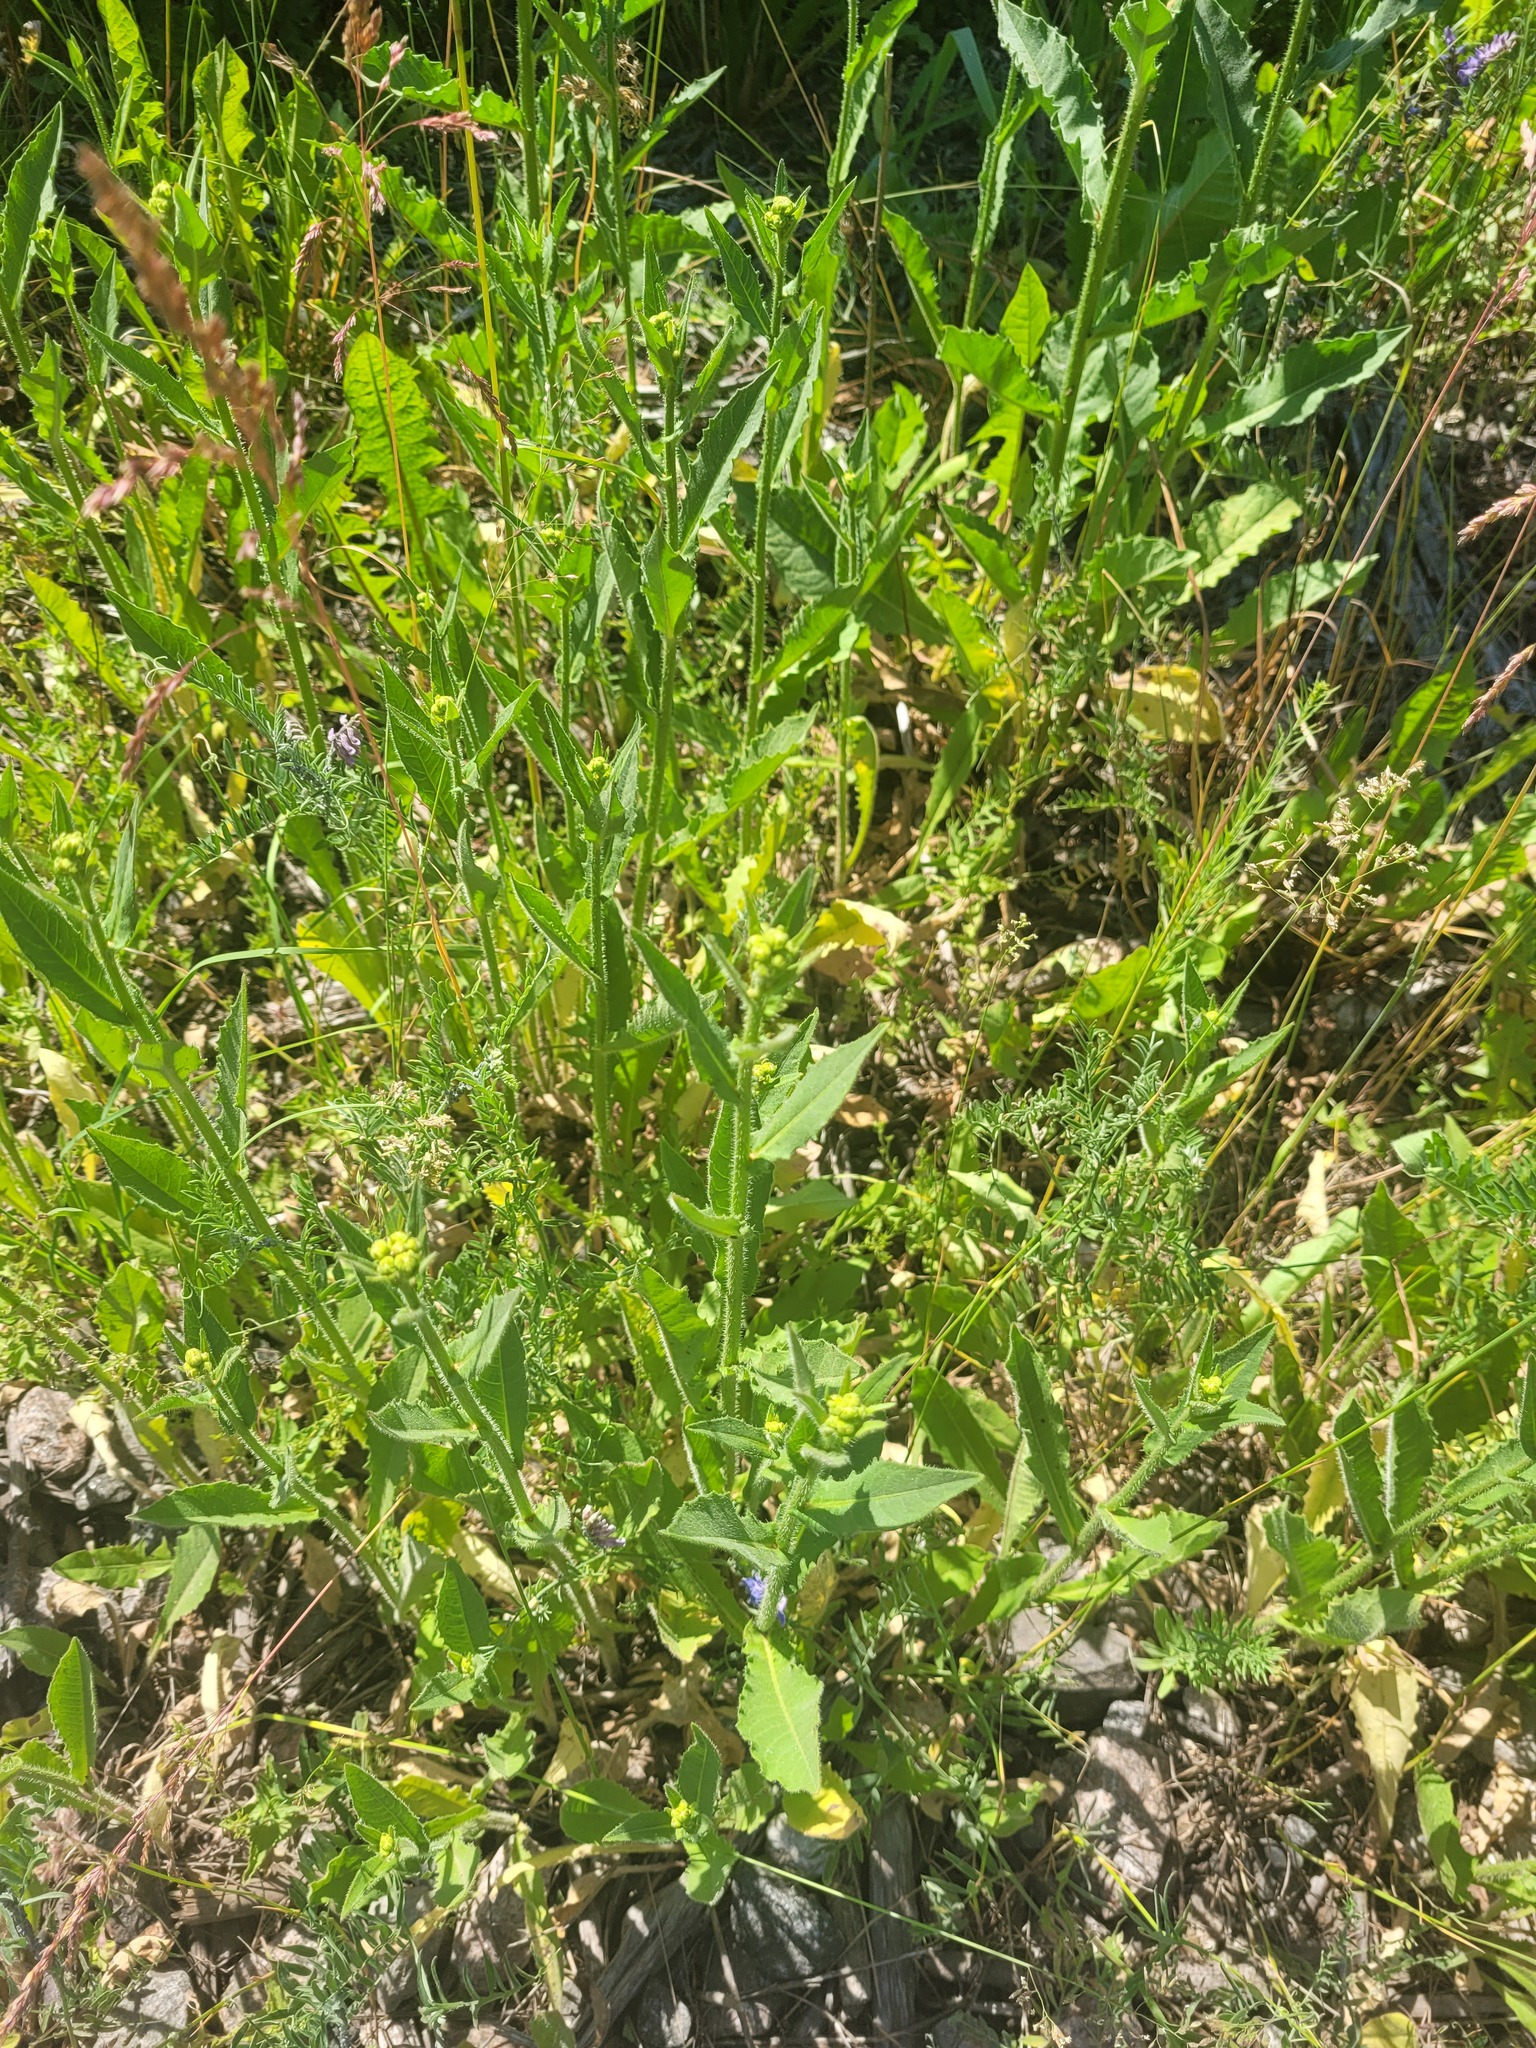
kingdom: Plantae
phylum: Tracheophyta
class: Magnoliopsida
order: Asterales
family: Asteraceae
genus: Picris
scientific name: Picris hieracioides
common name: Hawkweed oxtongue
